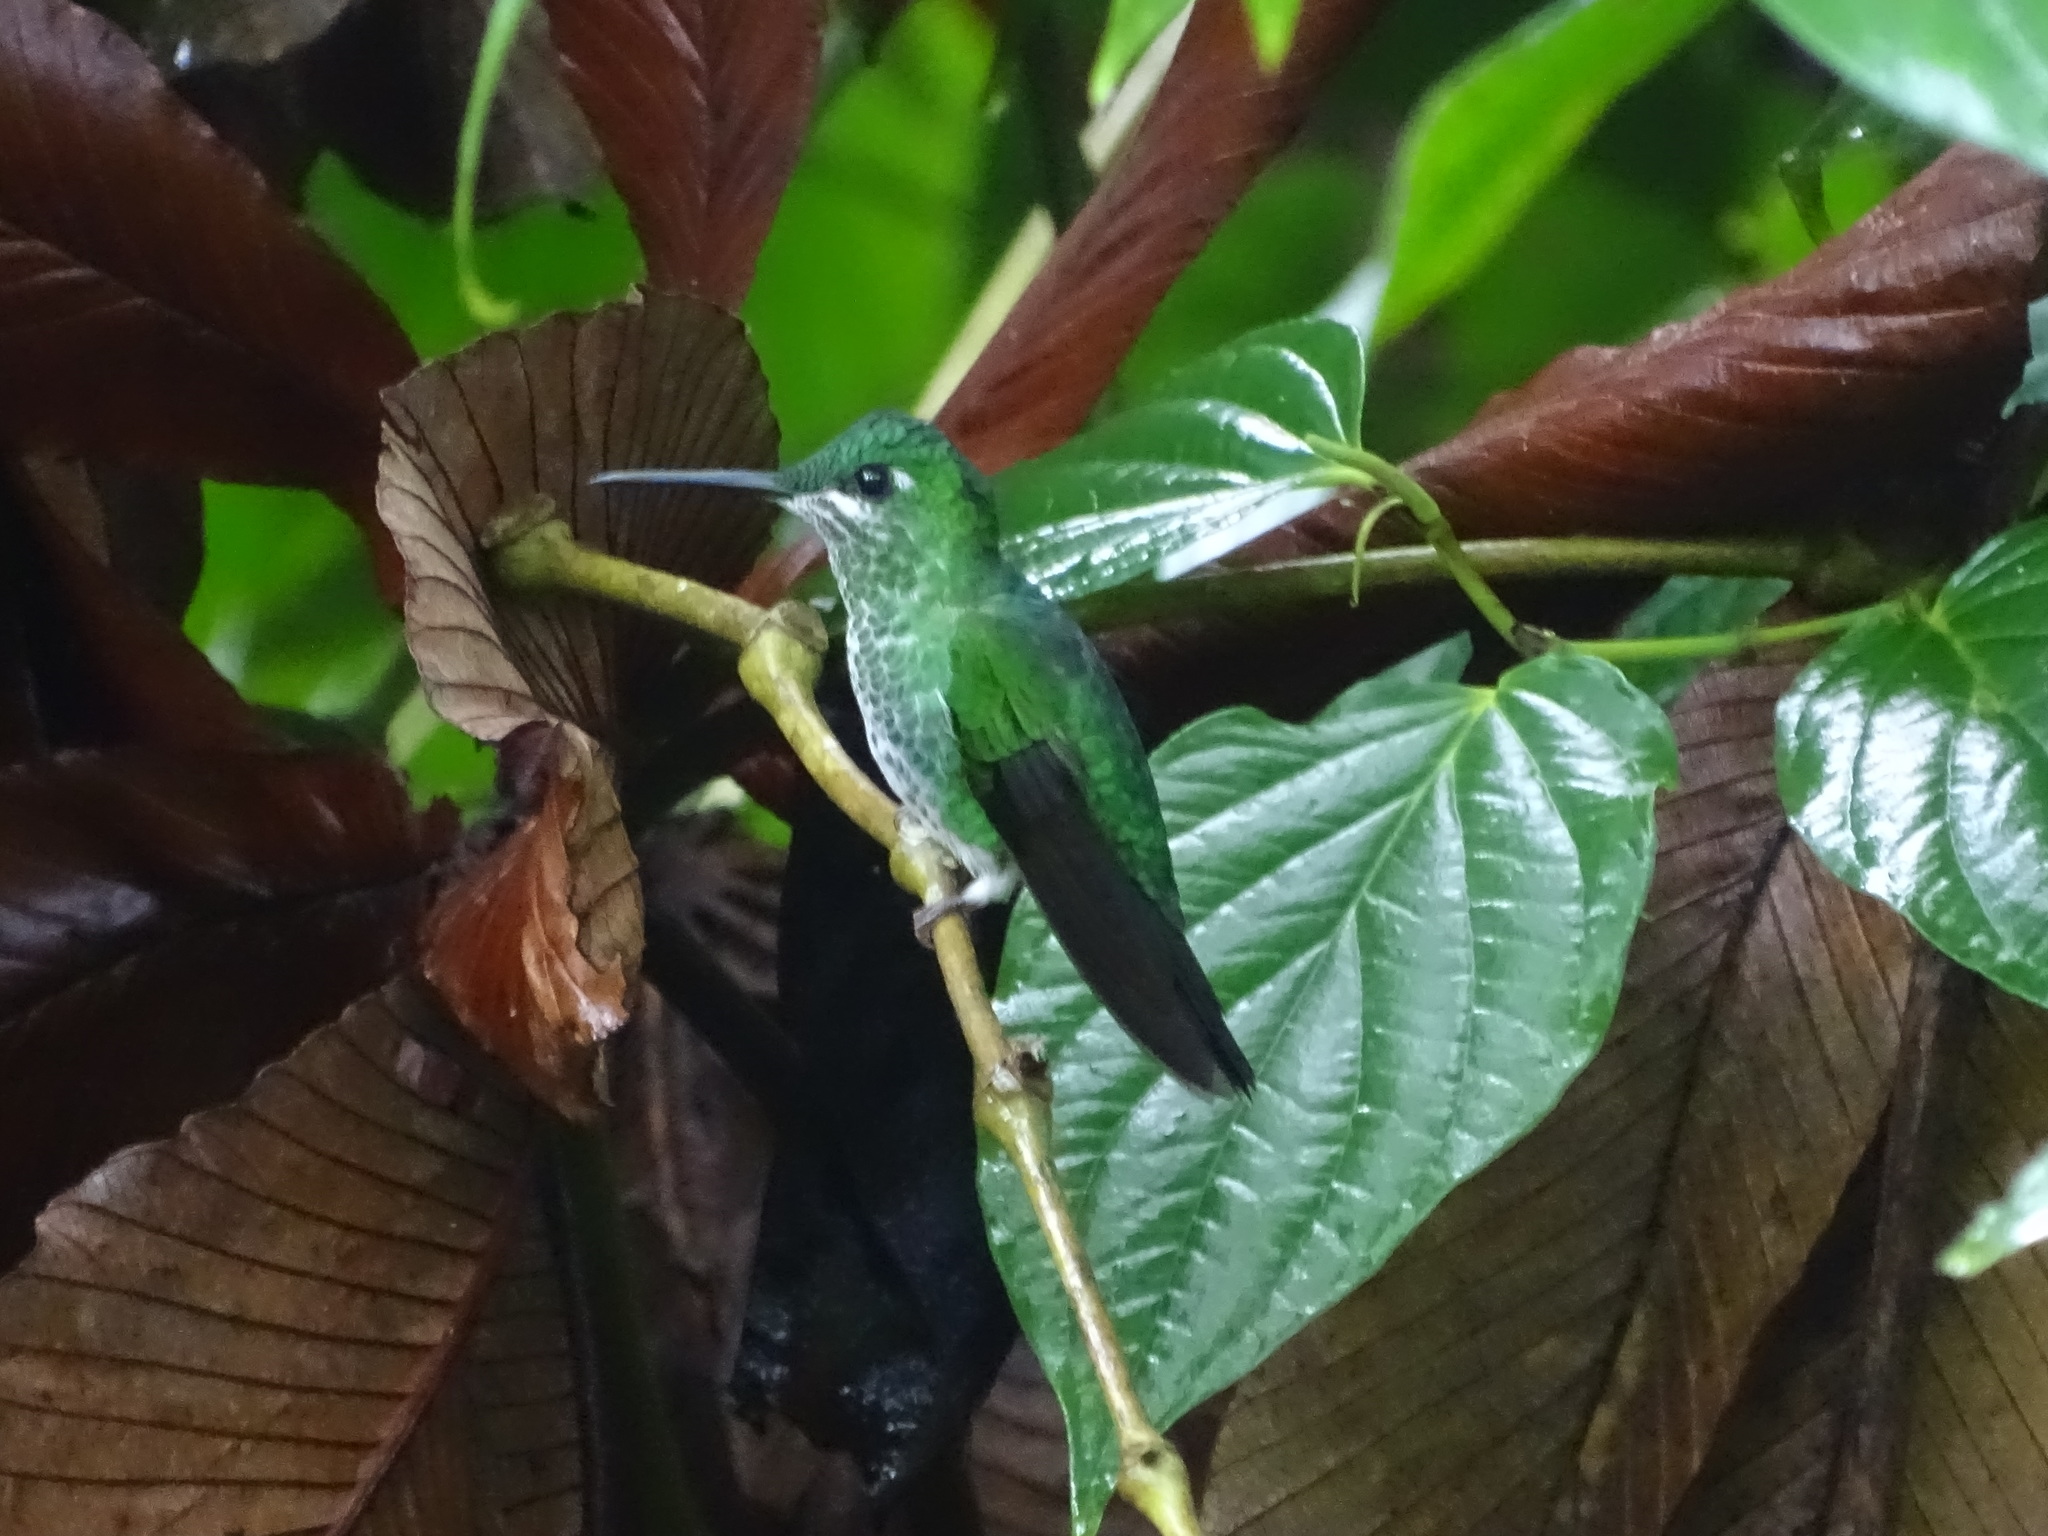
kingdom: Animalia
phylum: Chordata
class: Aves
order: Apodiformes
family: Trochilidae
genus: Heliodoxa
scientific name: Heliodoxa jacula
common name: Green-crowned brilliant
